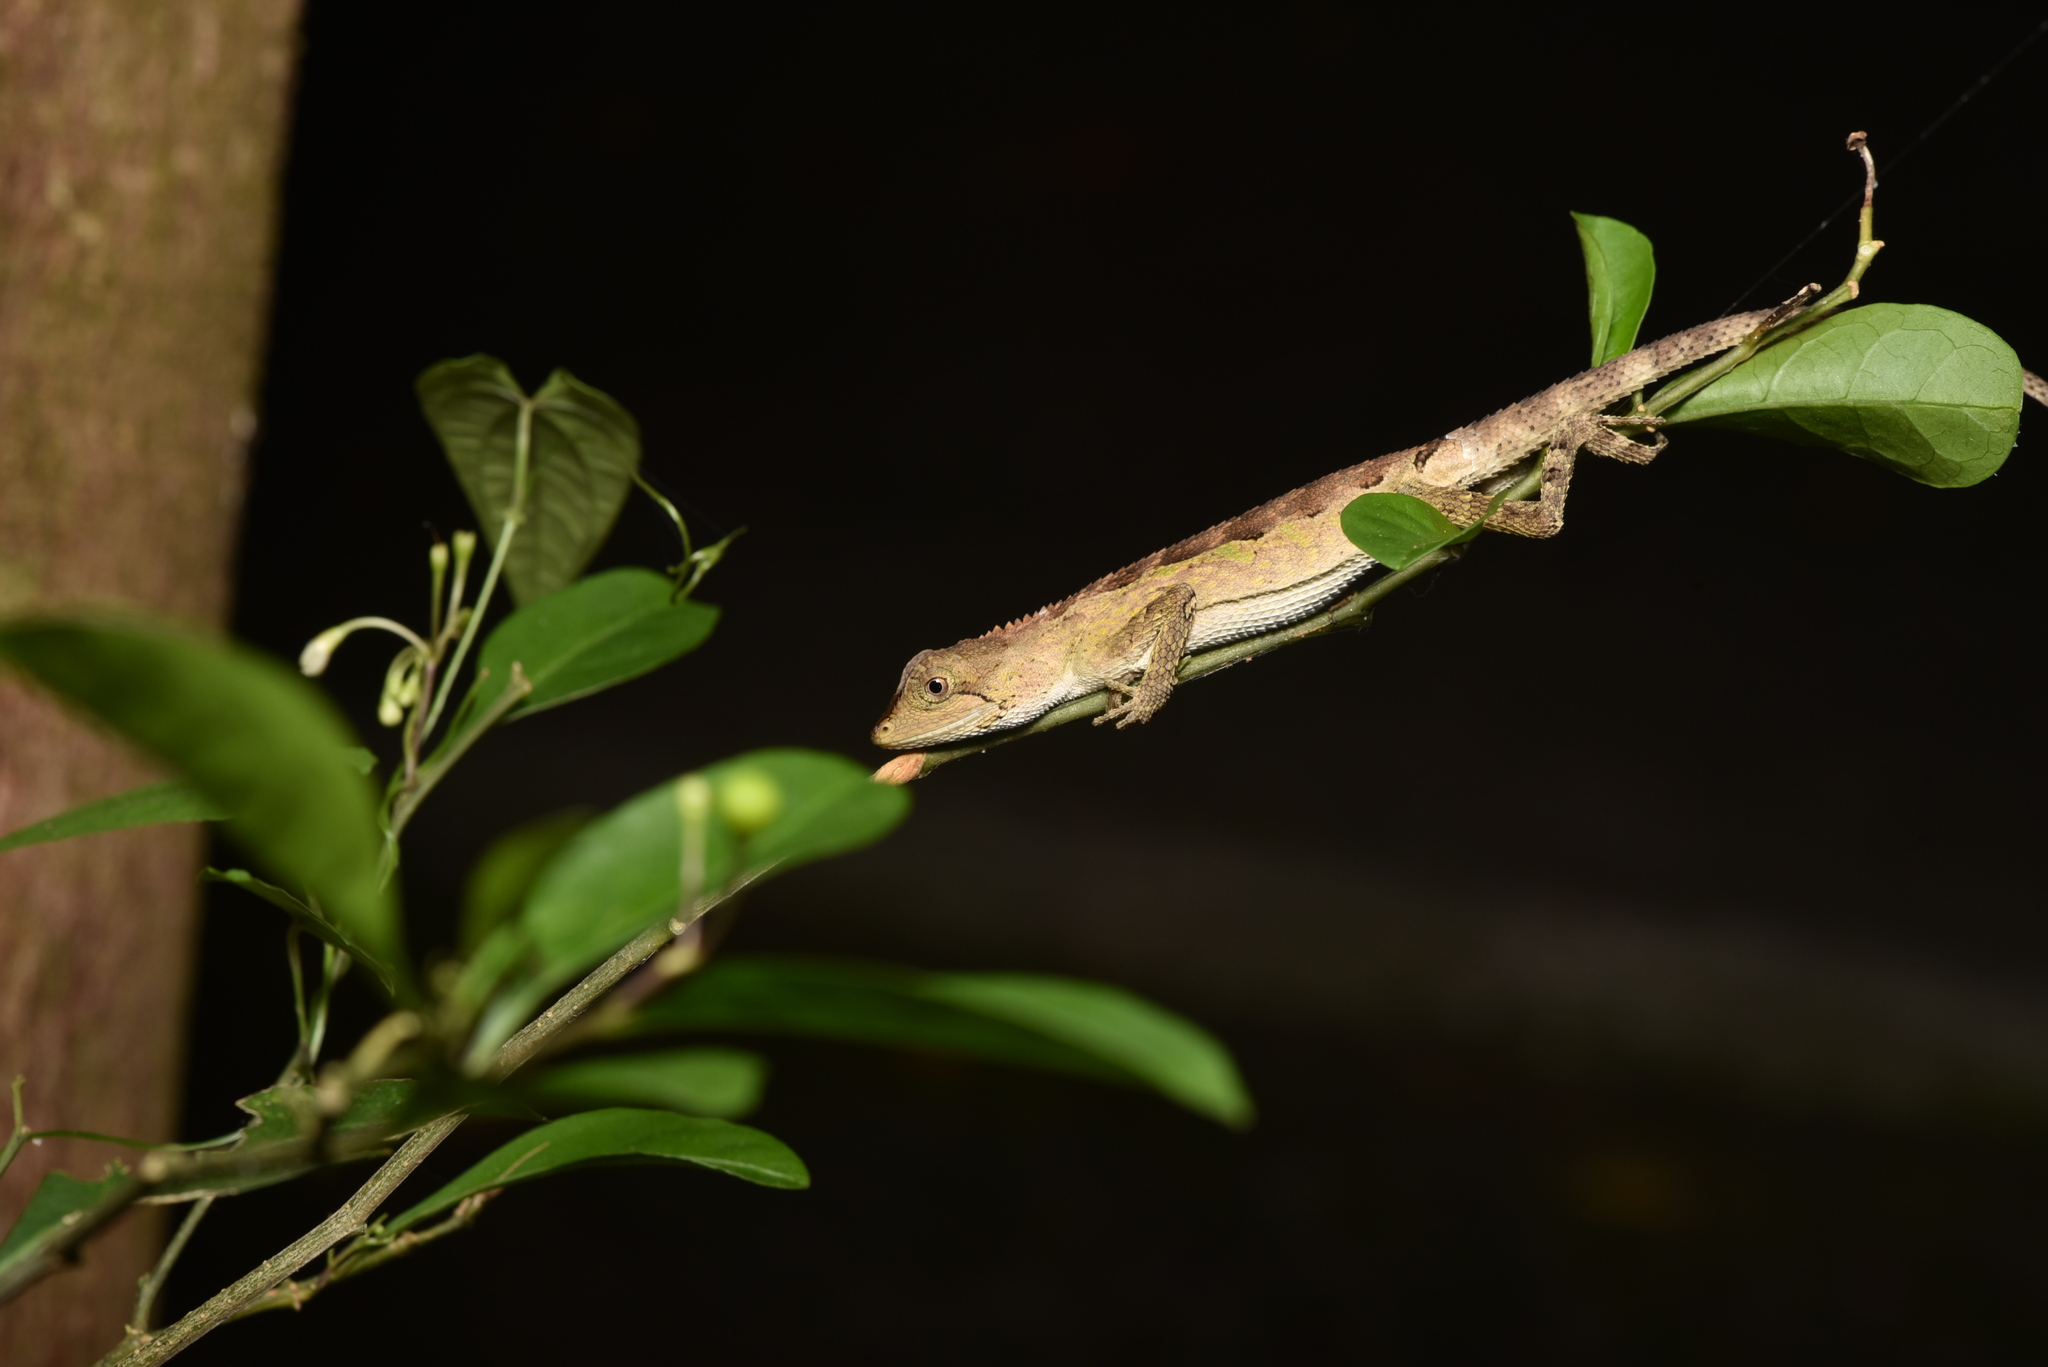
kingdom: Animalia
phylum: Chordata
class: Squamata
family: Agamidae
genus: Diploderma
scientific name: Diploderma swinhonis
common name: Taiwan japalure
